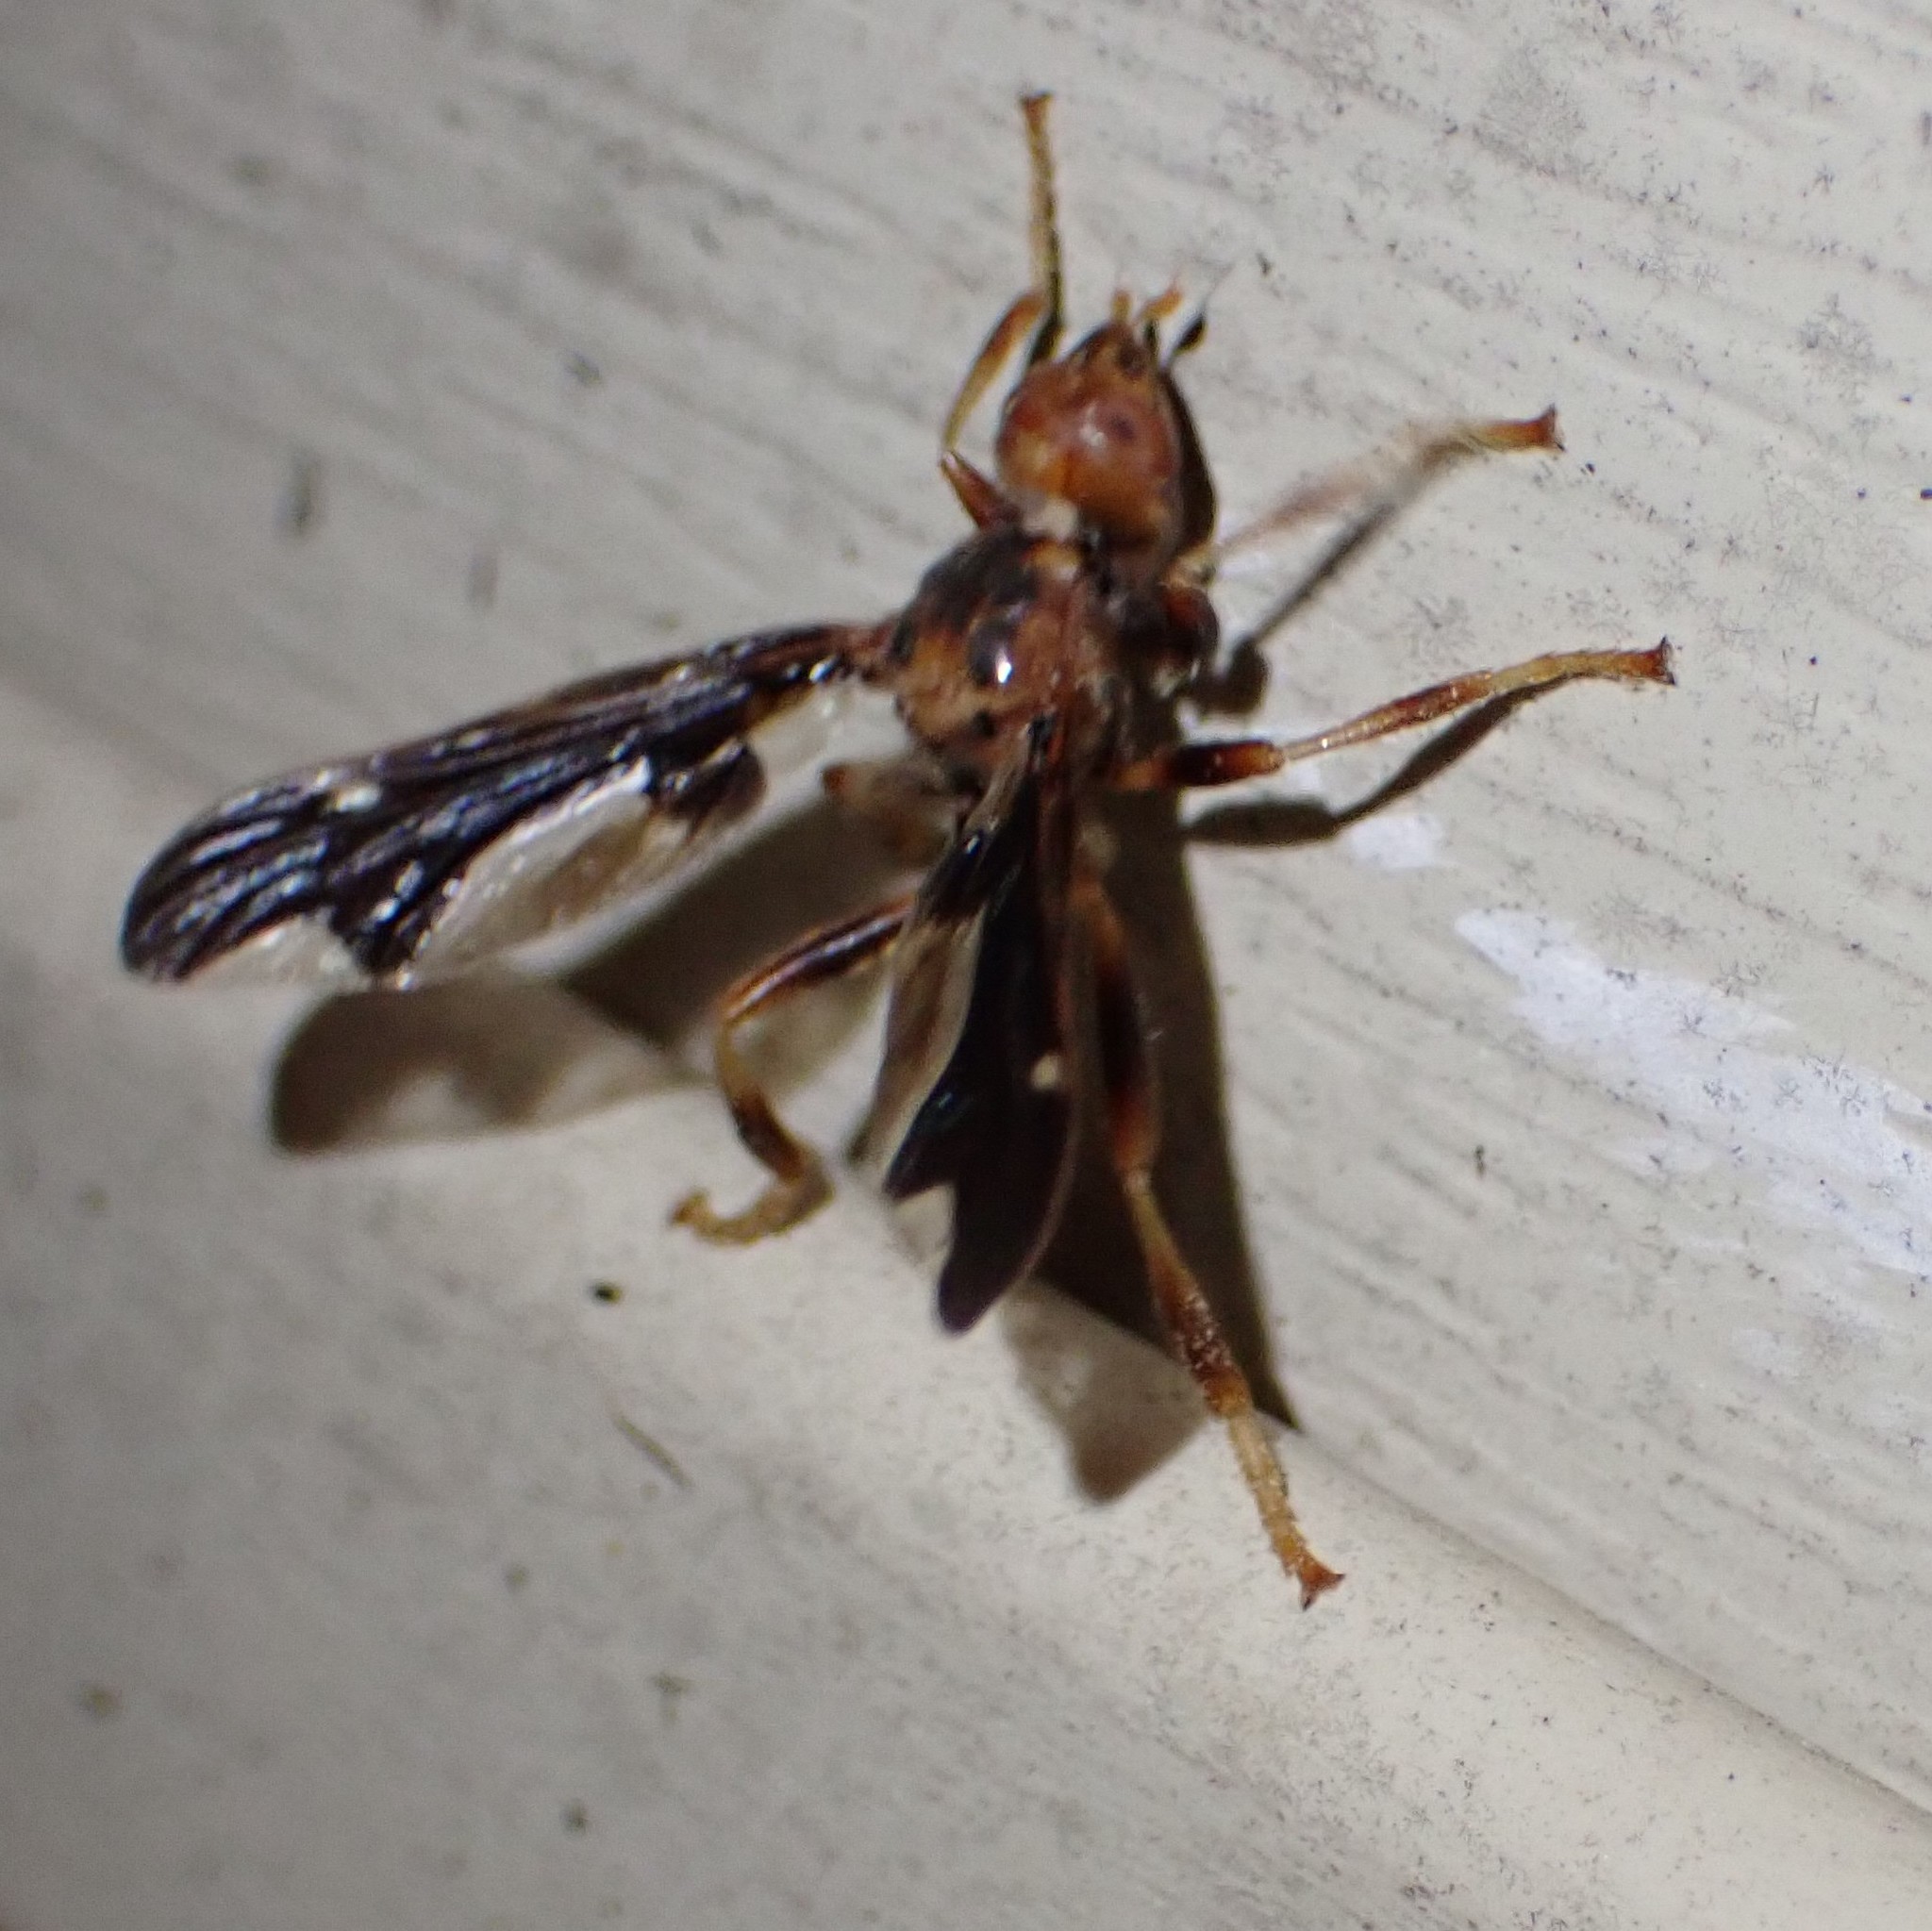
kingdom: Animalia
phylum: Arthropoda
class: Insecta
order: Diptera
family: Pyrgotidae
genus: Pyrgota
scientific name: Pyrgota undata
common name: Waved light fly
